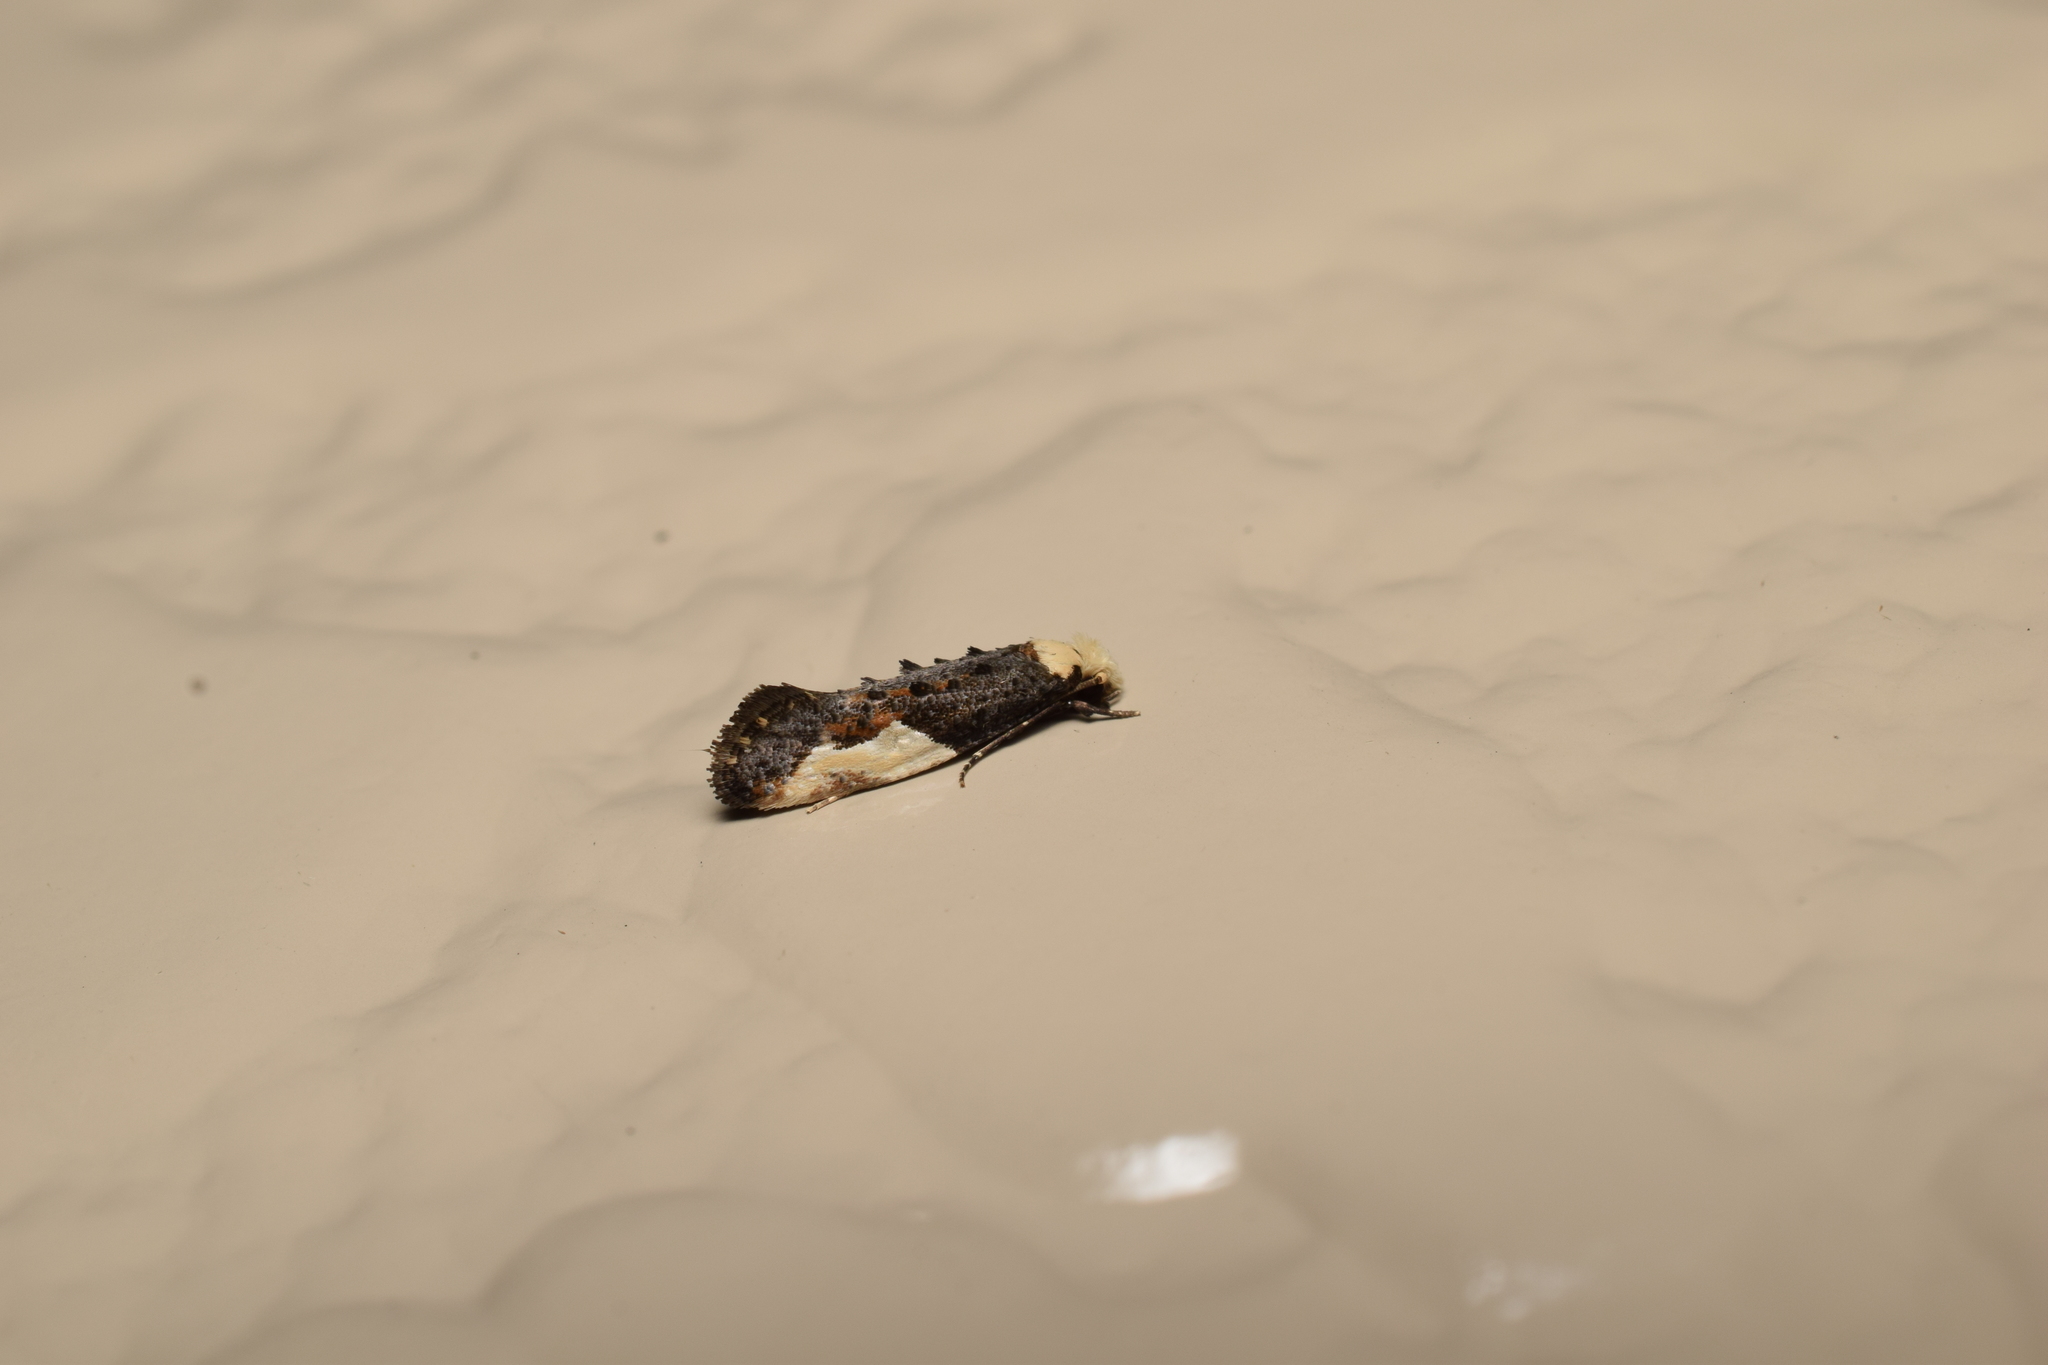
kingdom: Animalia
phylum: Arthropoda
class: Insecta
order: Lepidoptera
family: Tineidae
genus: Monopis
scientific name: Monopis longella
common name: Pavlovski's monopis moth
